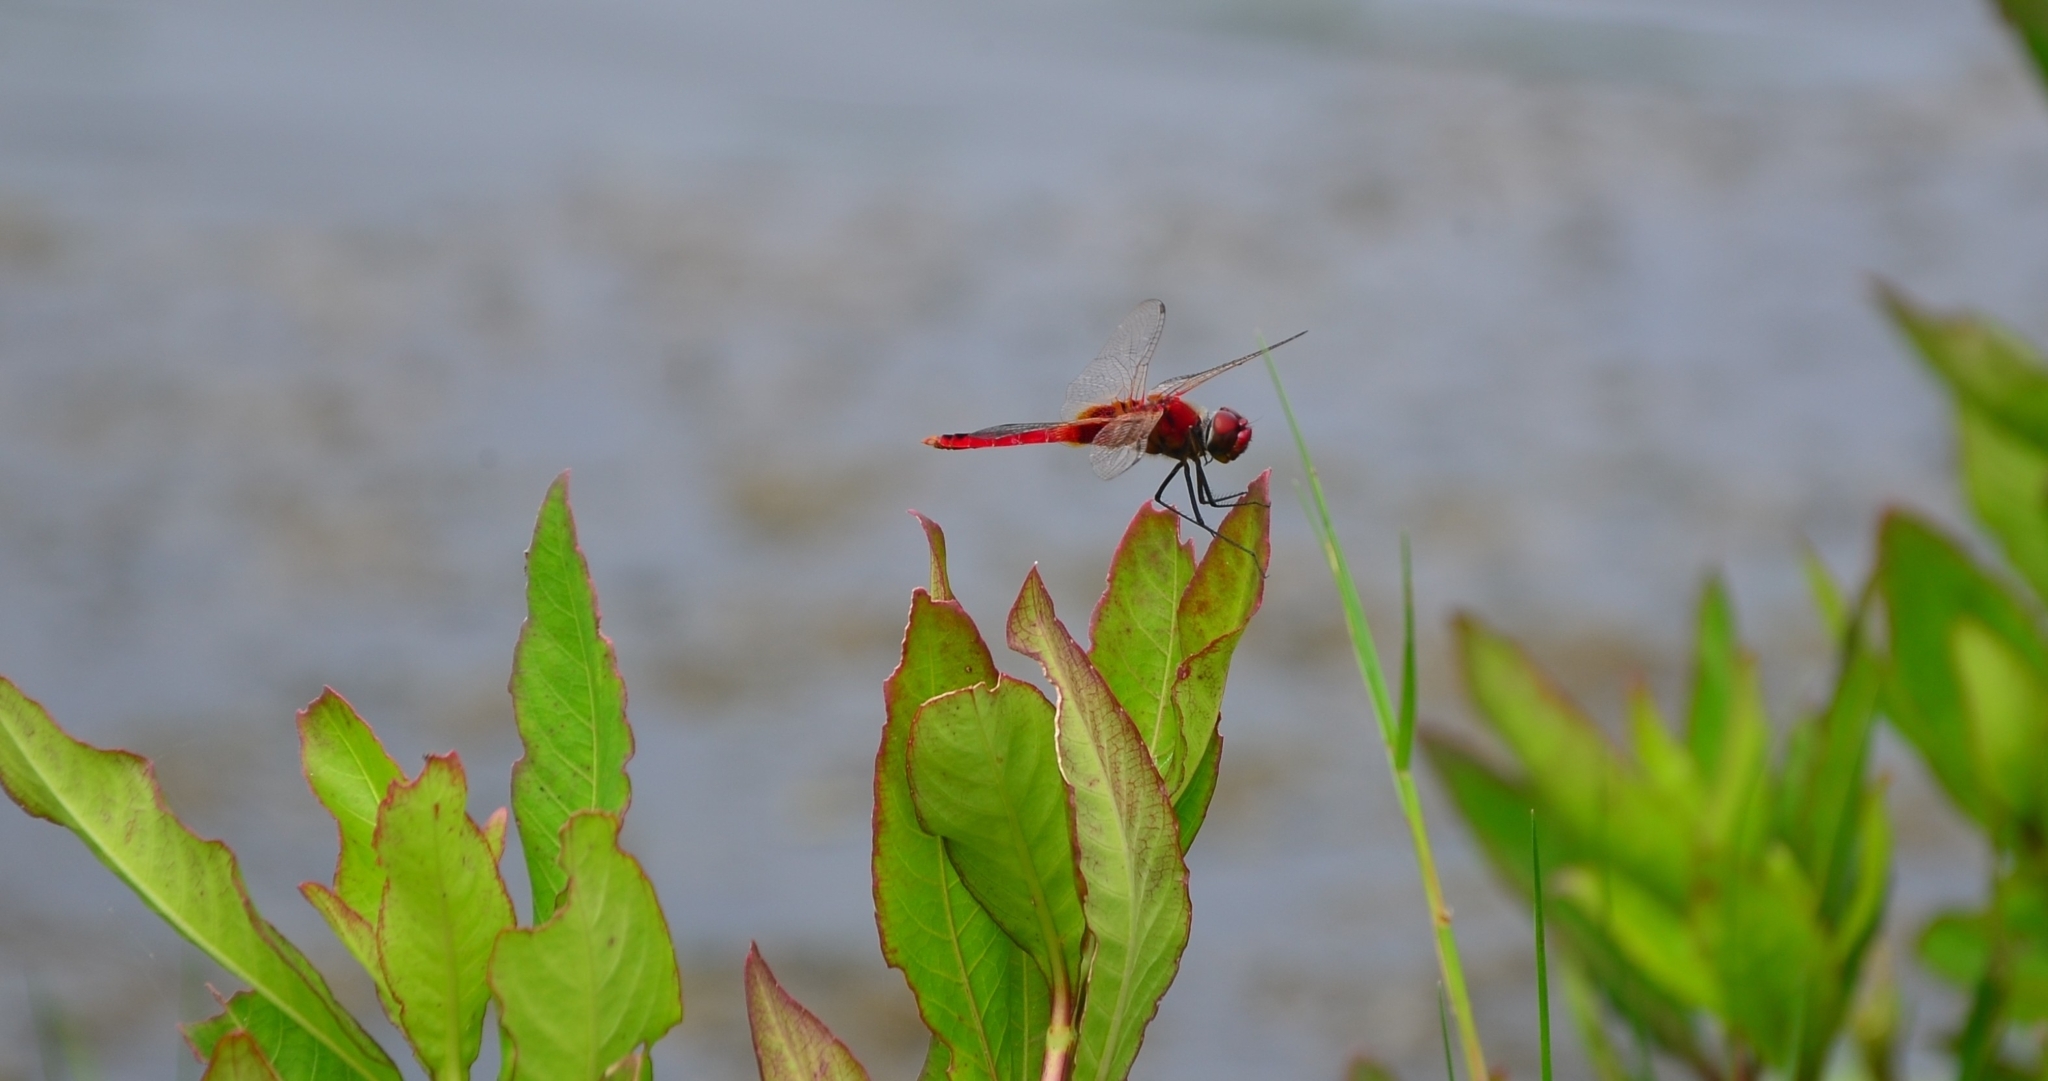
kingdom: Animalia
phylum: Arthropoda
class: Insecta
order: Odonata
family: Libellulidae
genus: Urothemis
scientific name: Urothemis signata
